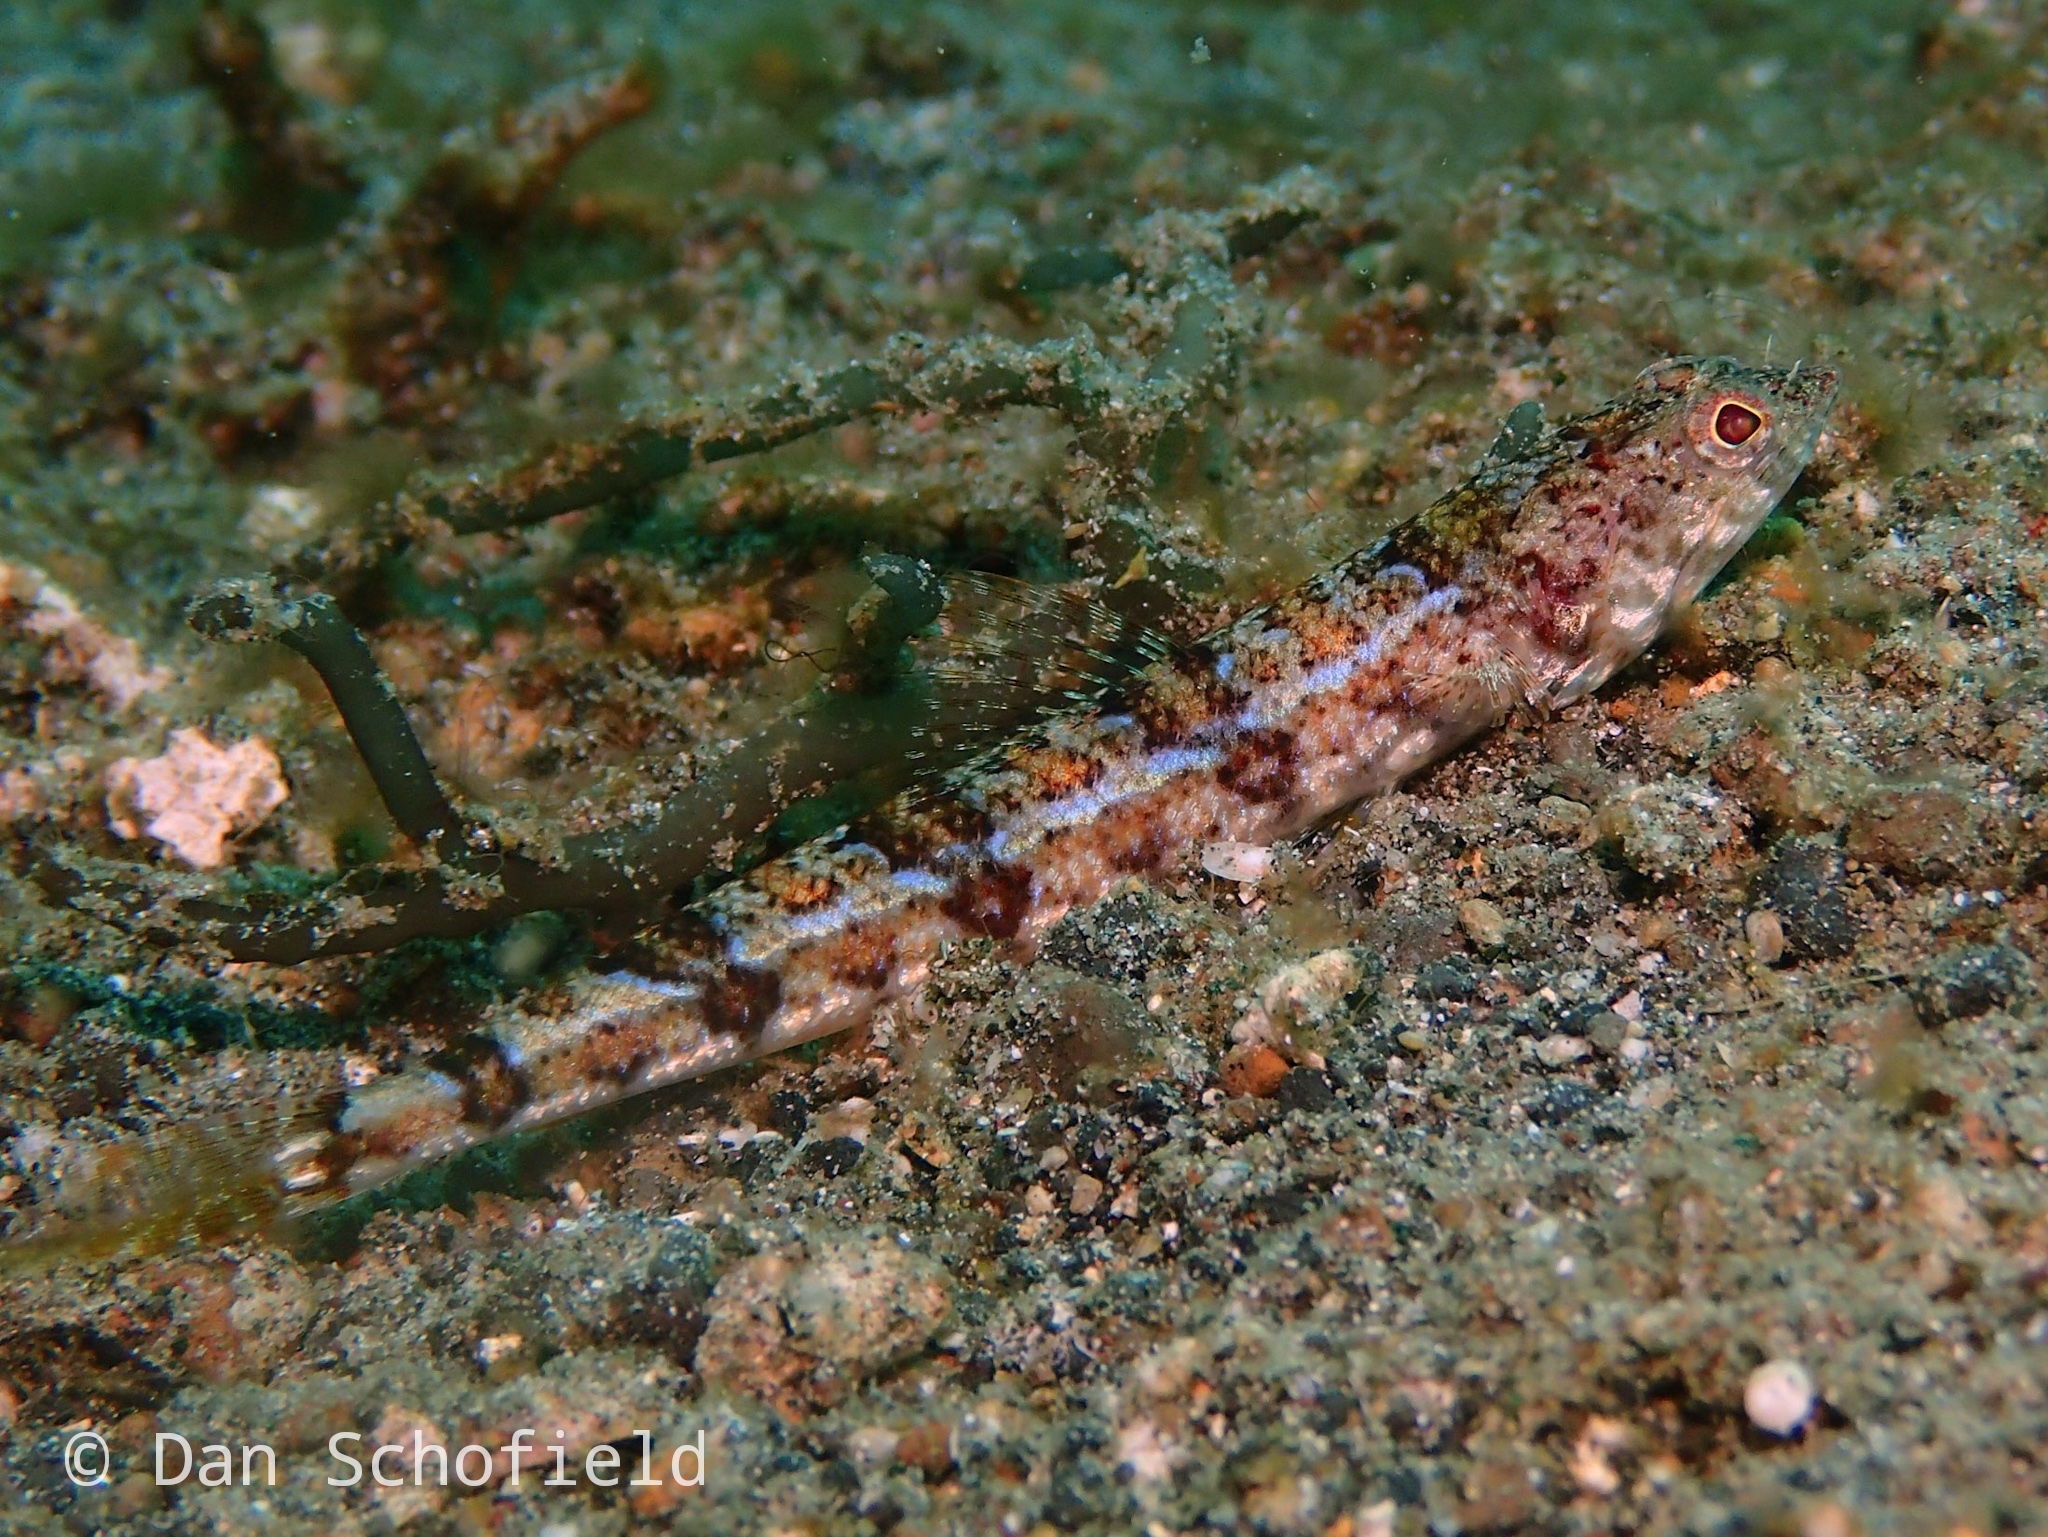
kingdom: Animalia
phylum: Chordata
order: Aulopiformes
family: Synodontidae
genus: Synodus
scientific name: Synodus dermatogenys
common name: Banded lizardfish
